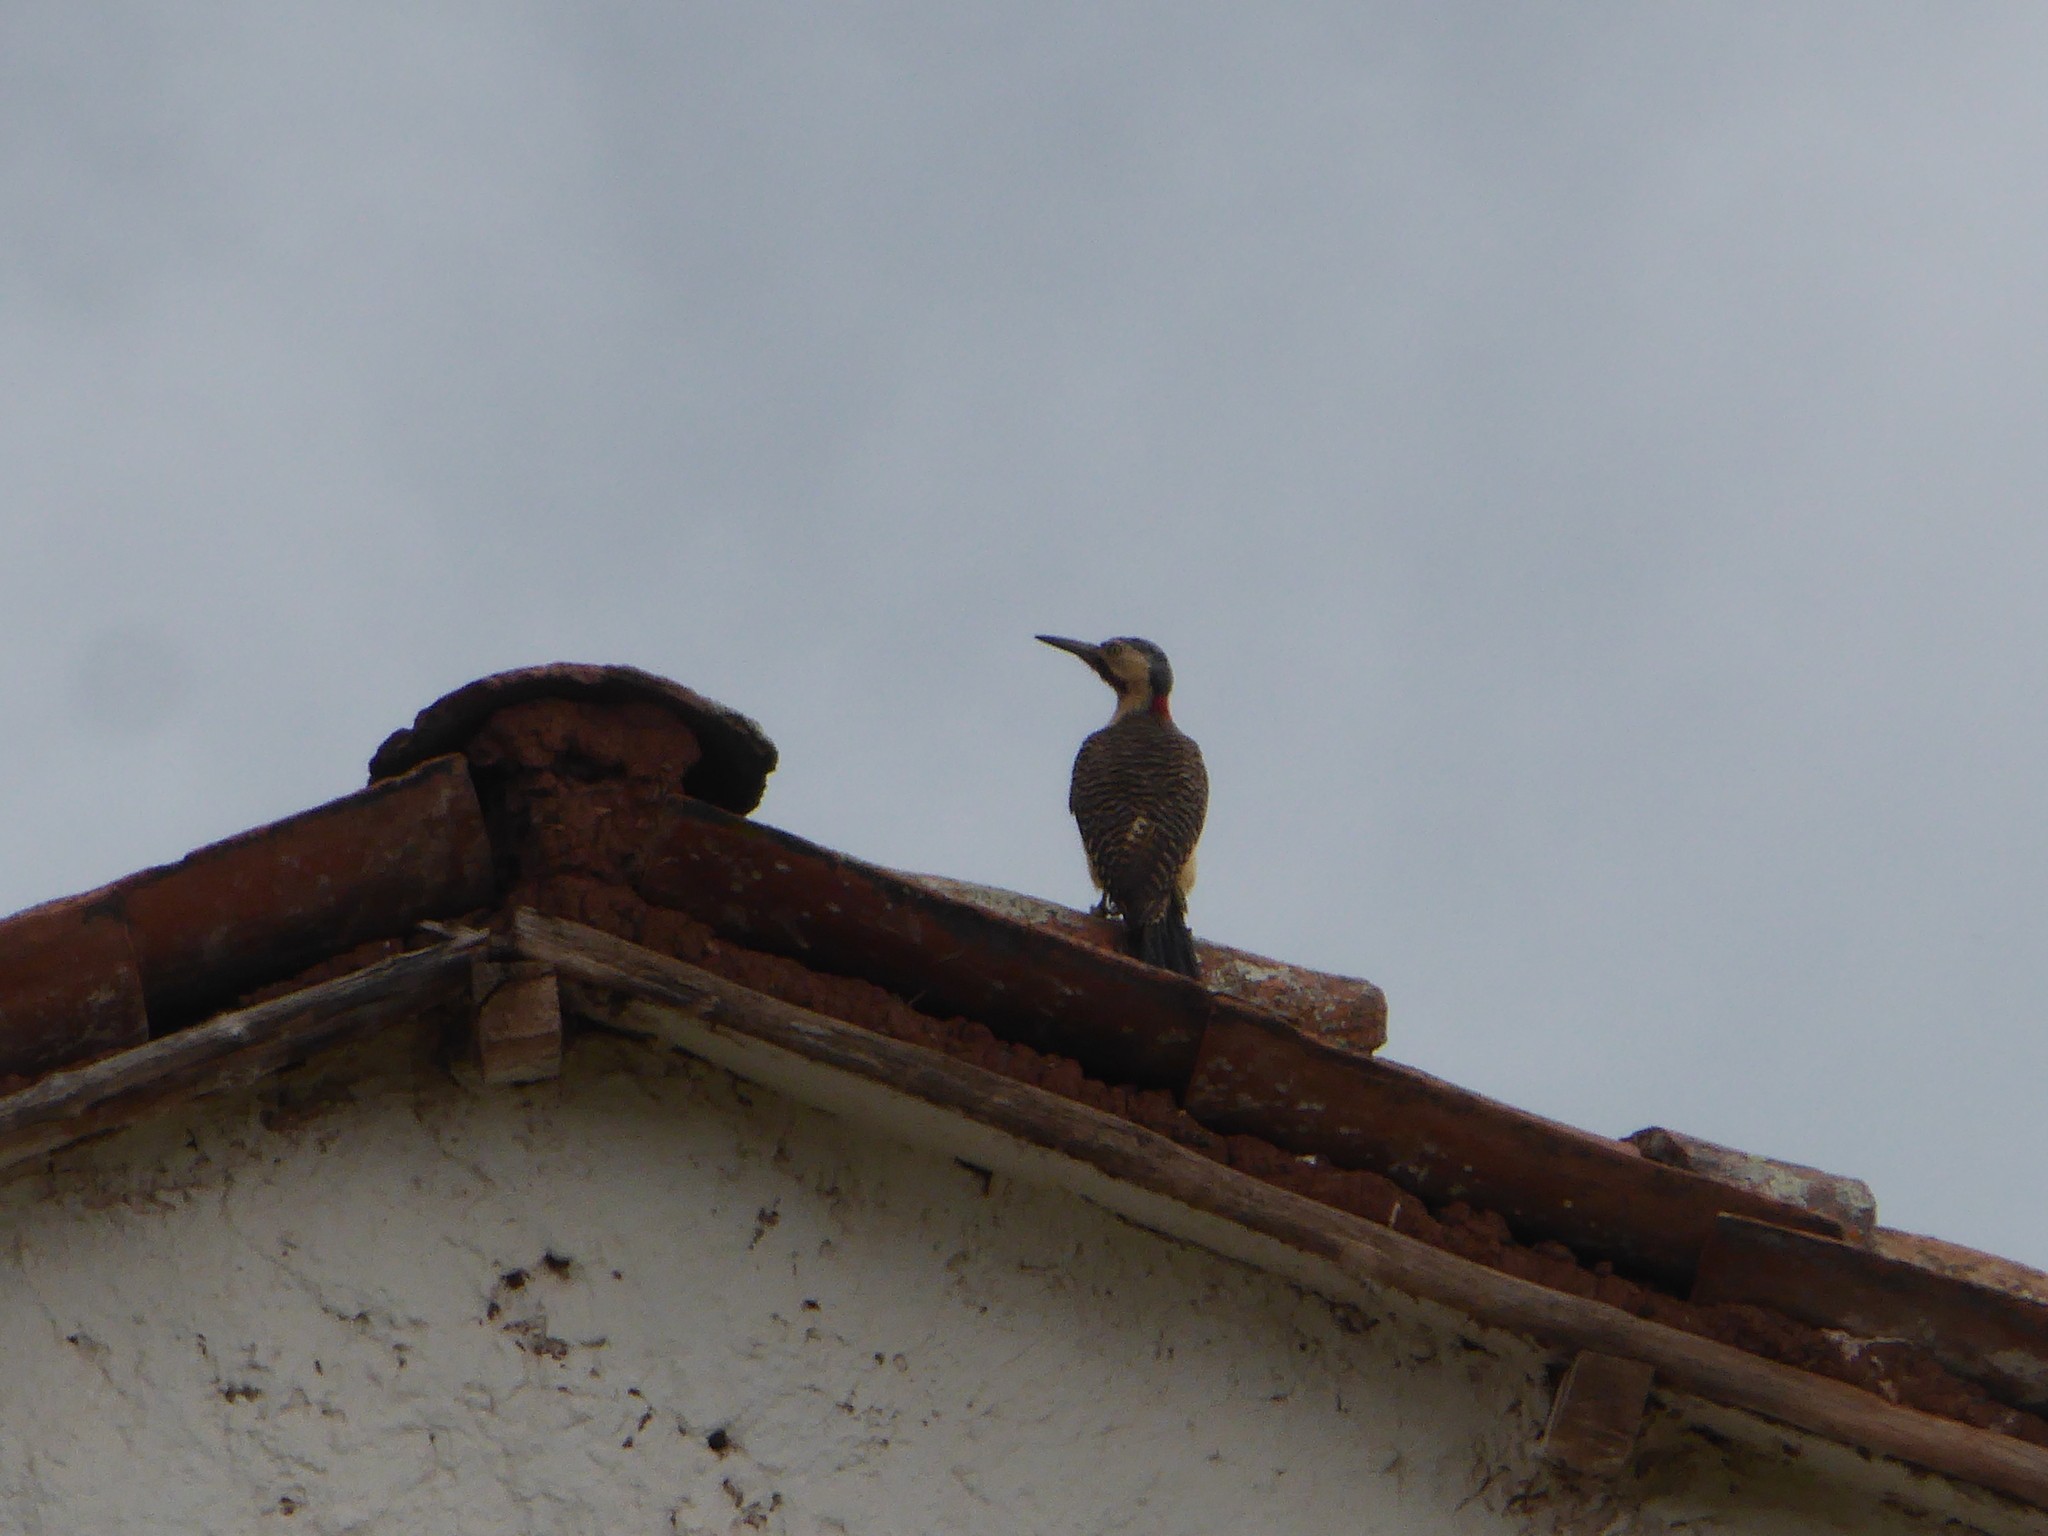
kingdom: Animalia
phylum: Chordata
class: Aves
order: Piciformes
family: Picidae
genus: Colaptes
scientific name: Colaptes rupicola
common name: Andean flicker
